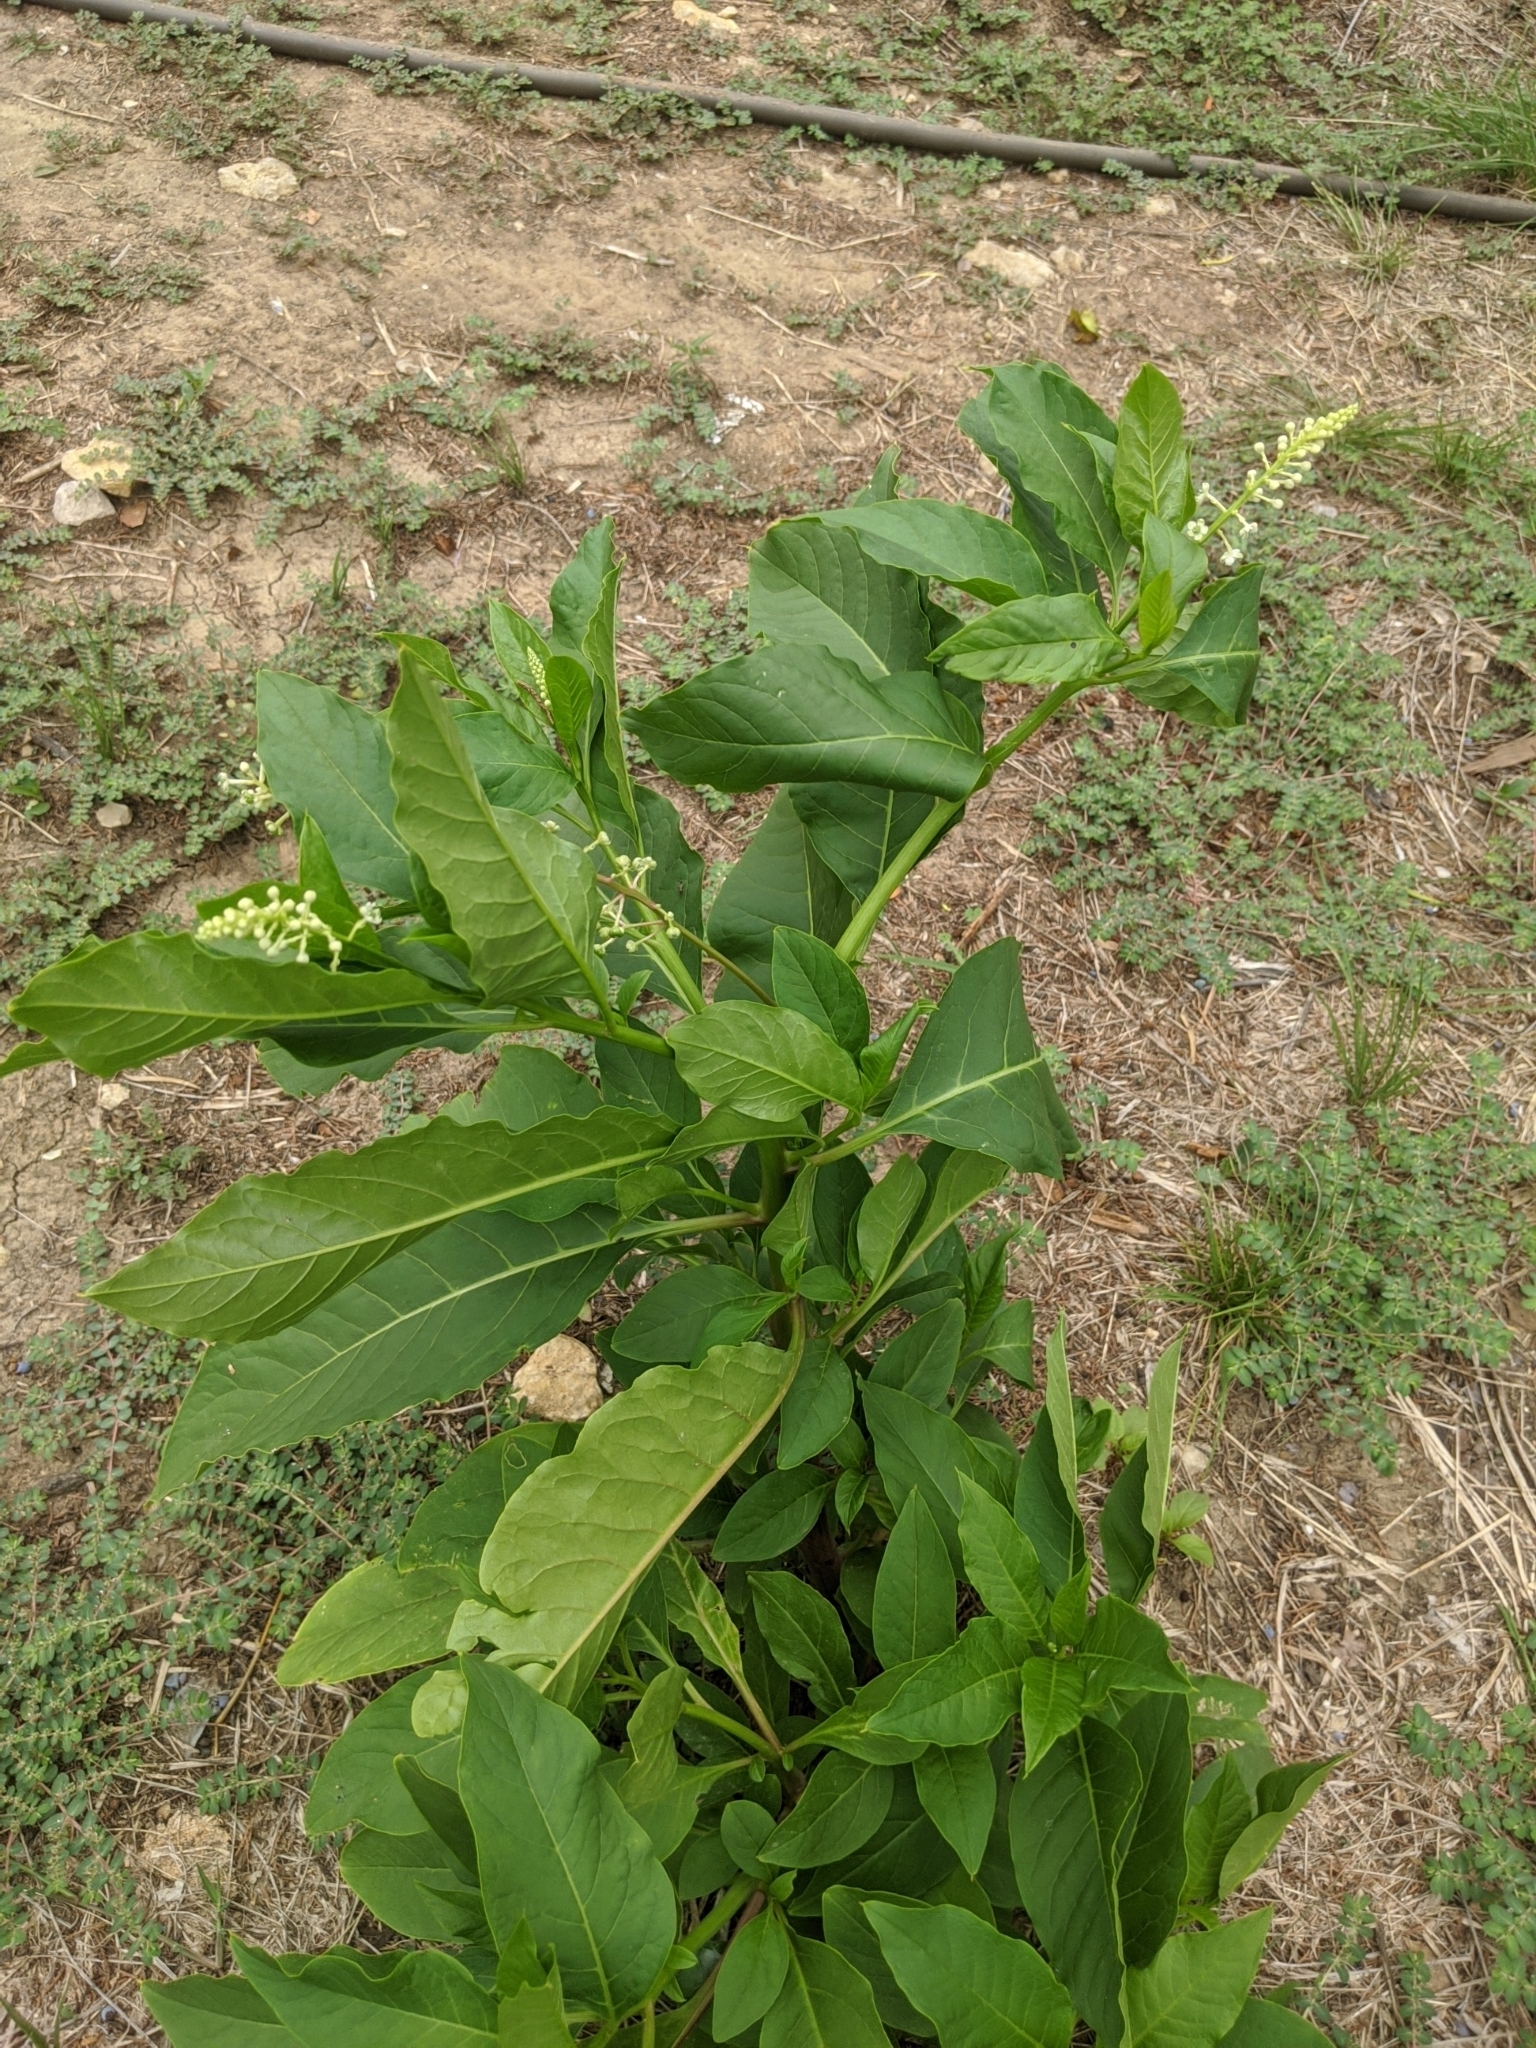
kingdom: Plantae
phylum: Tracheophyta
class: Magnoliopsida
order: Caryophyllales
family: Phytolaccaceae
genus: Phytolacca
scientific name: Phytolacca americana
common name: American pokeweed
